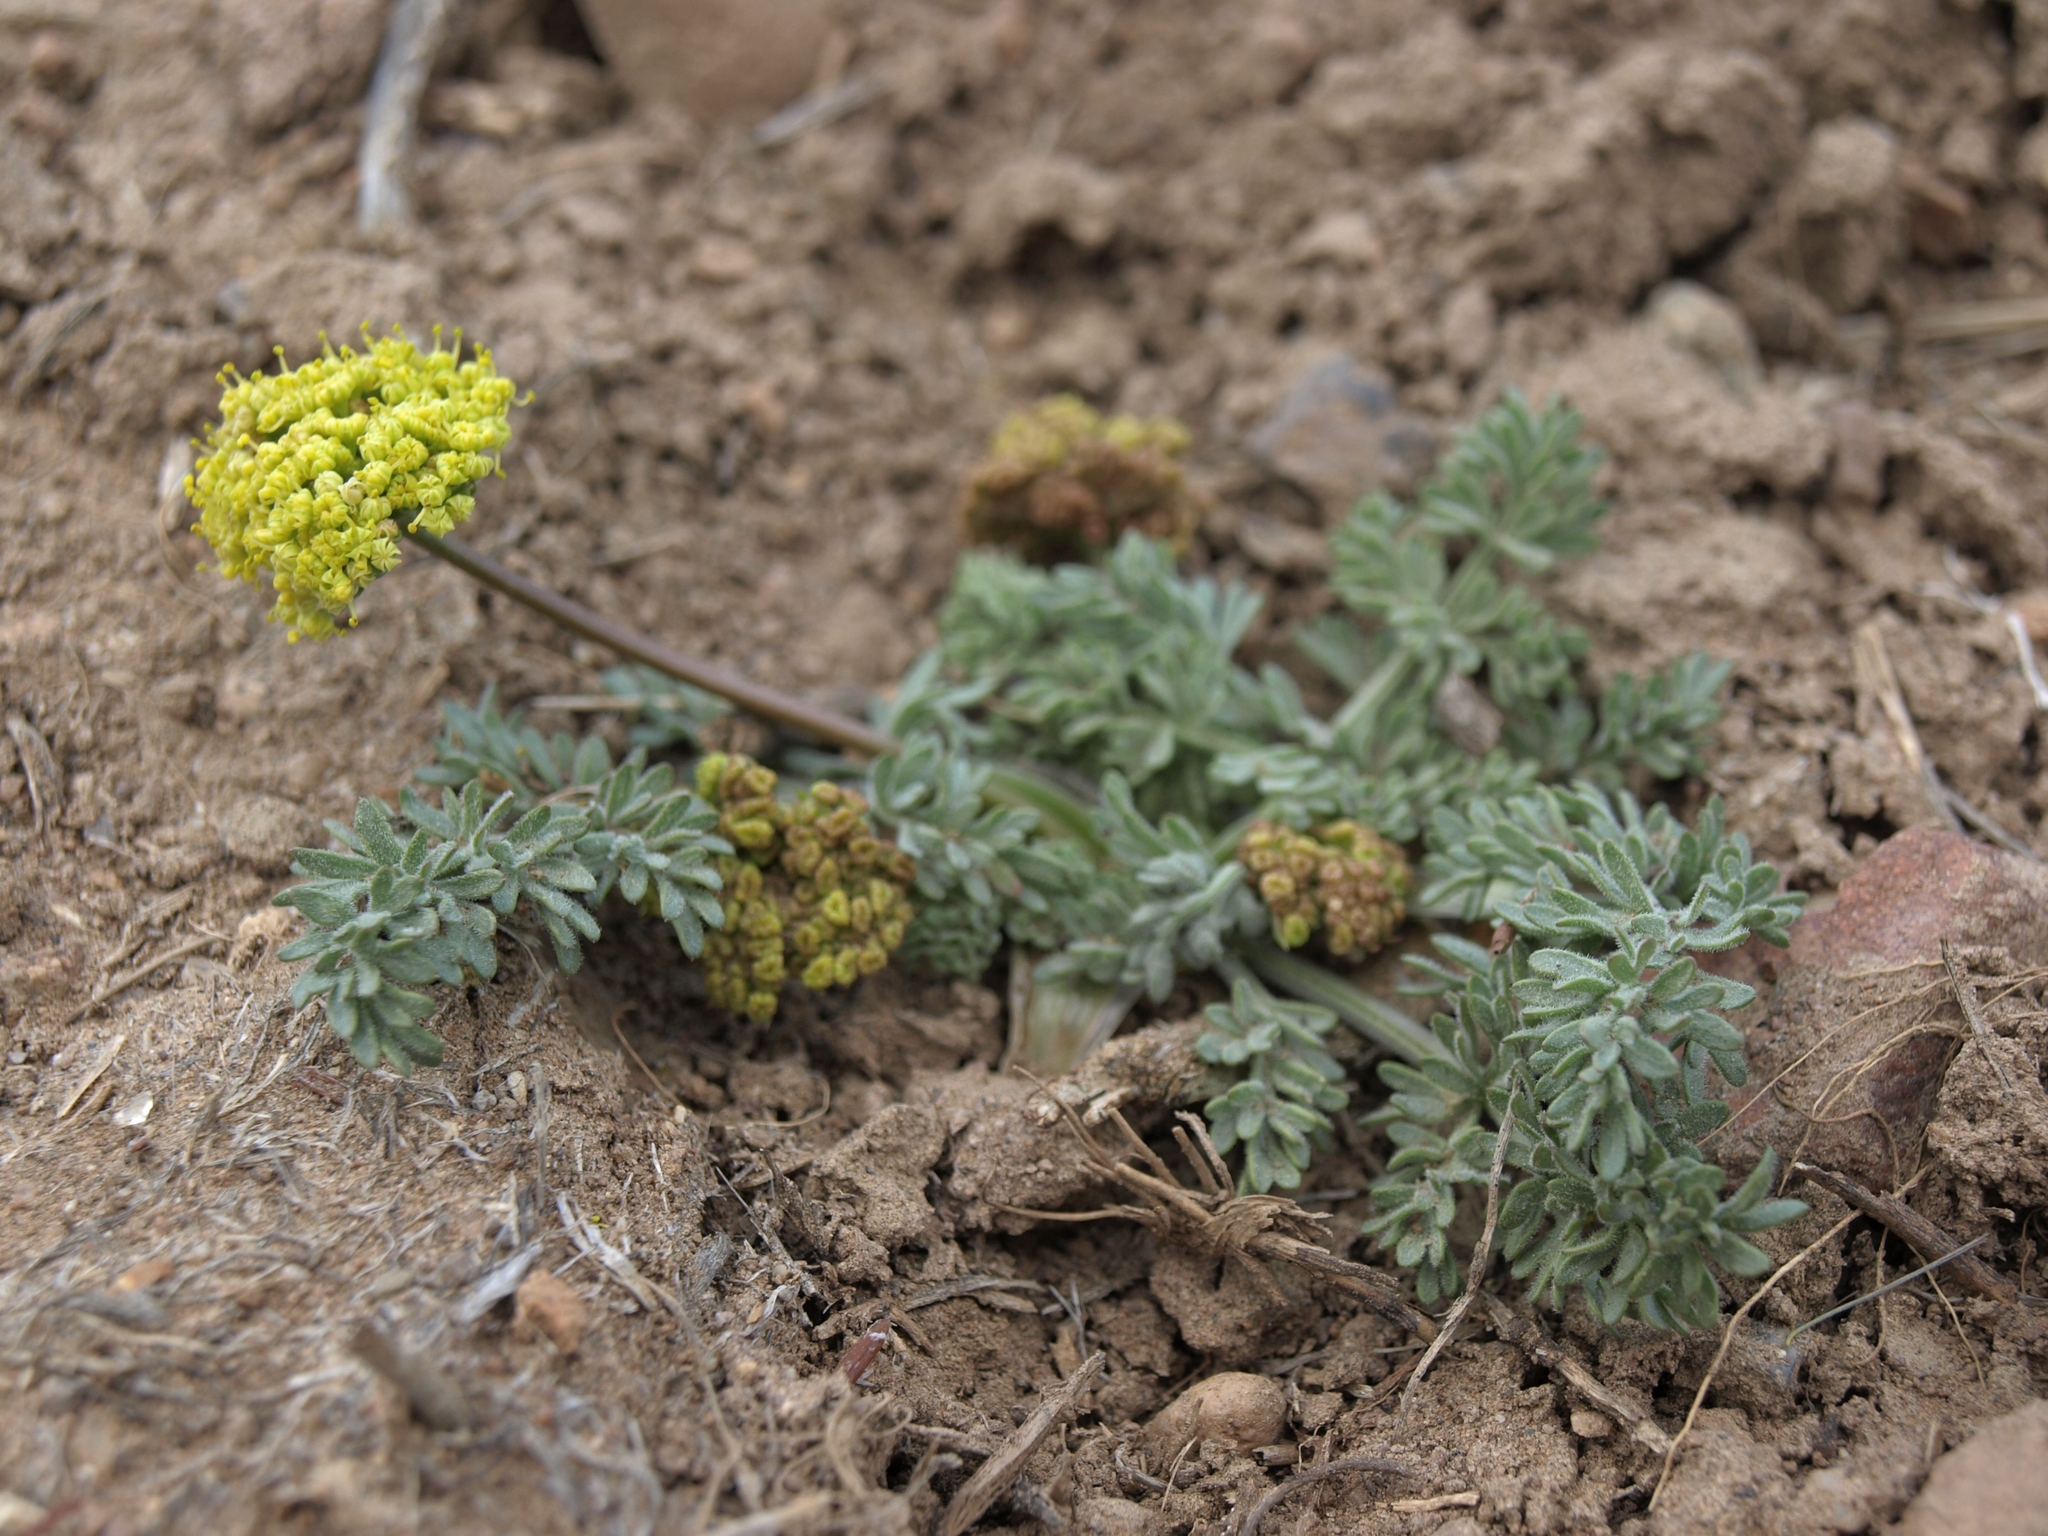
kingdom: Plantae
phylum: Tracheophyta
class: Magnoliopsida
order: Apiales
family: Apiaceae
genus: Lomatium
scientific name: Lomatium foeniculaceum
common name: Desert-parsley
